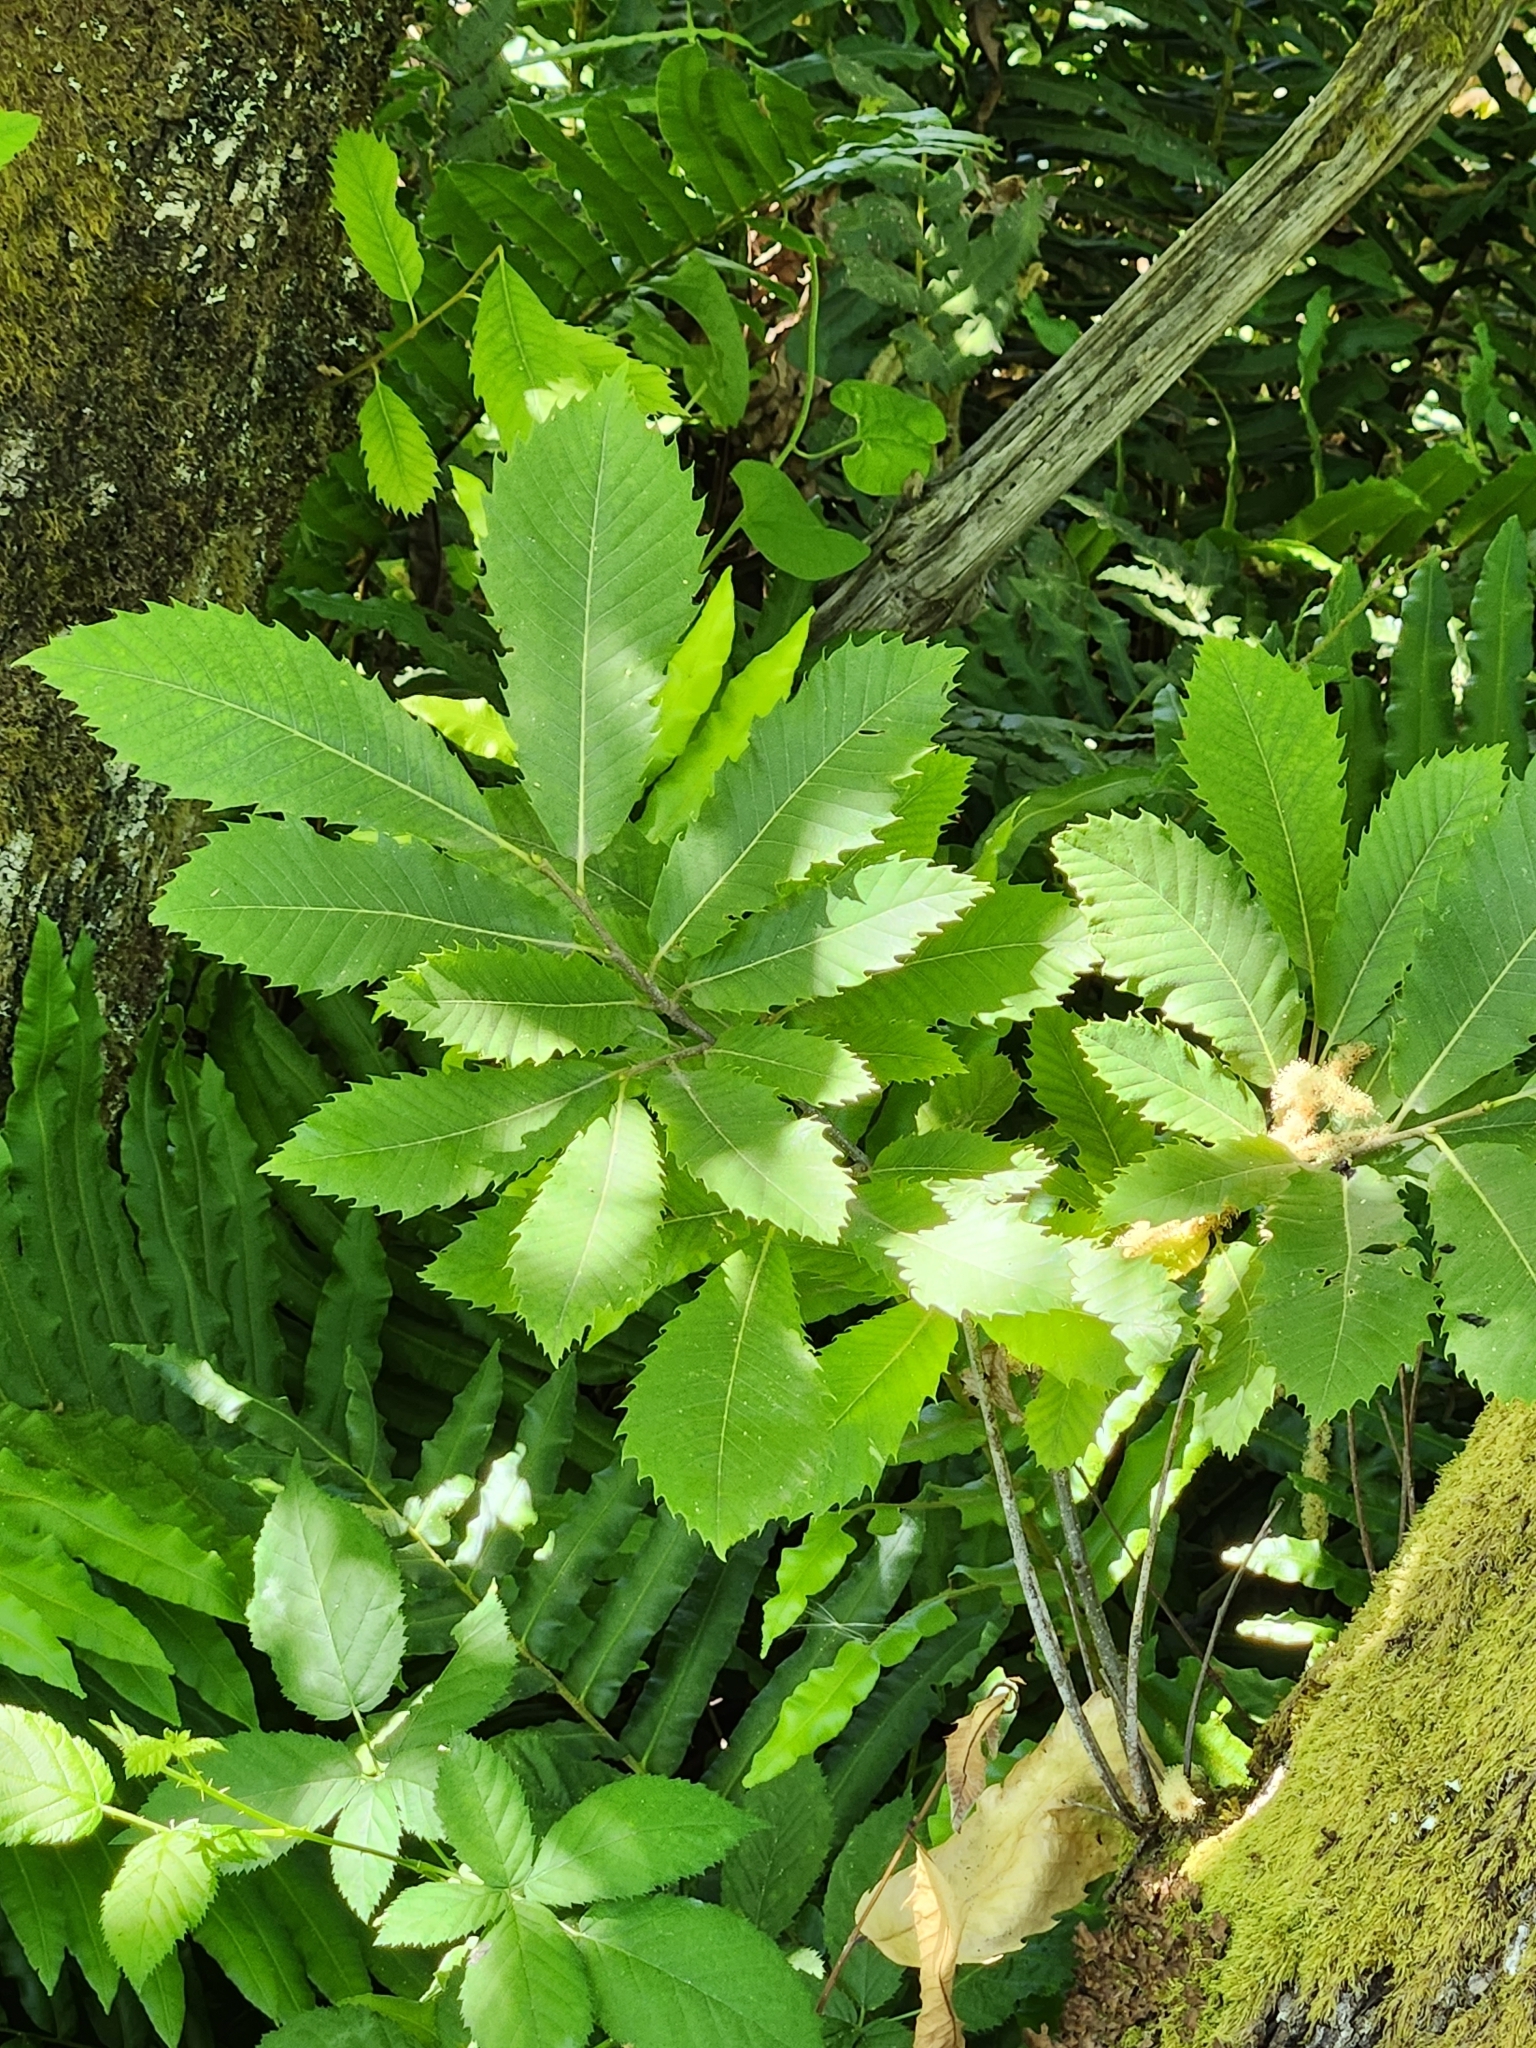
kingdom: Plantae
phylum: Tracheophyta
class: Magnoliopsida
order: Fagales
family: Fagaceae
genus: Castanea
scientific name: Castanea sativa
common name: Sweet chestnut
